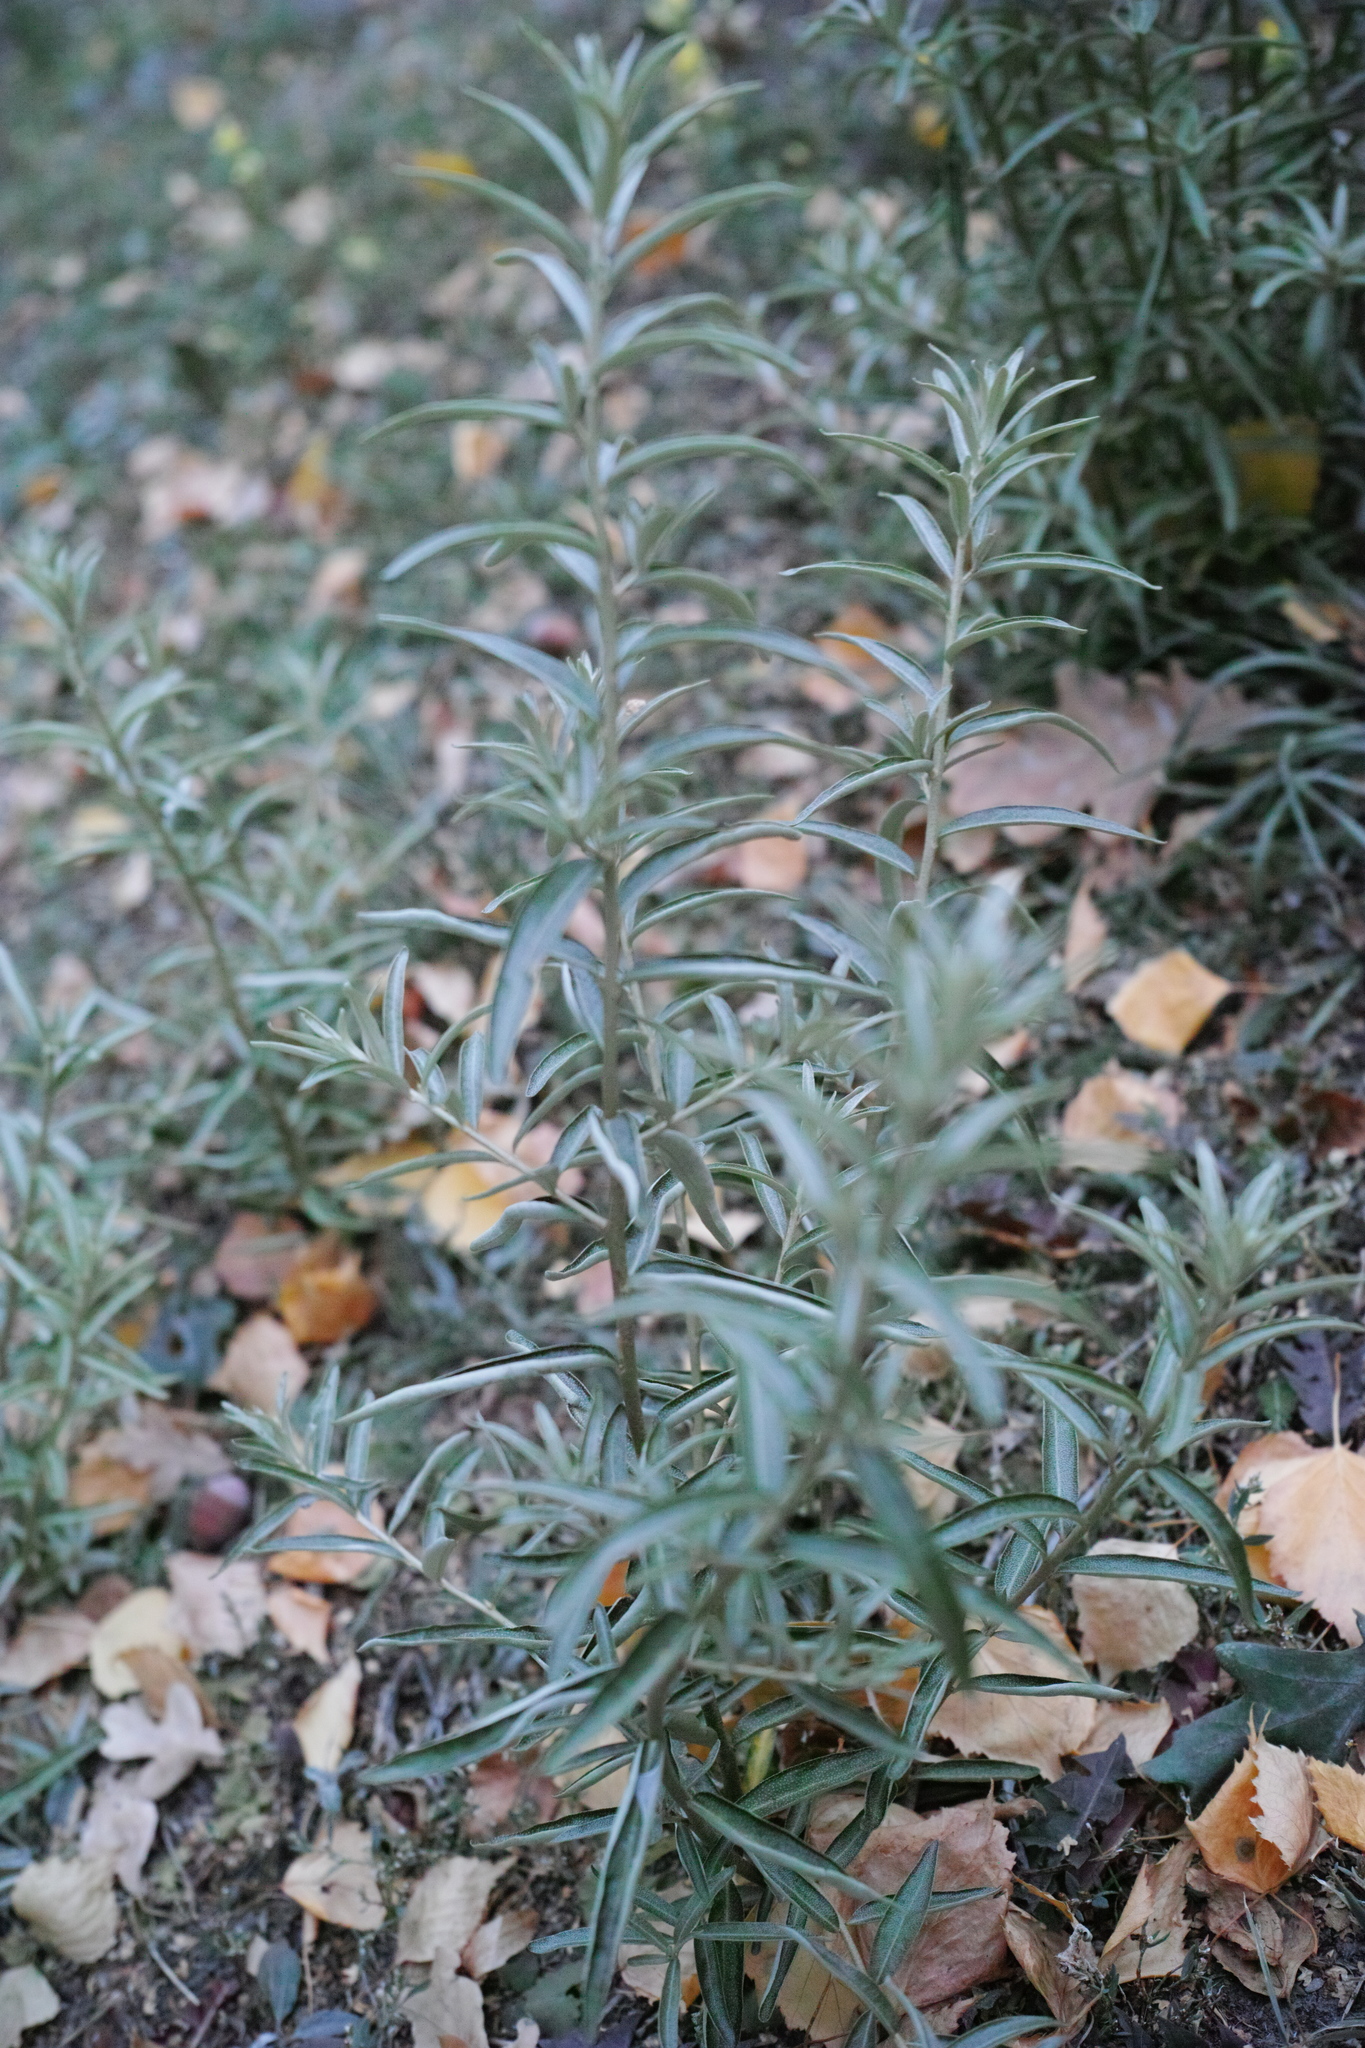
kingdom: Plantae
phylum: Tracheophyta
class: Magnoliopsida
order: Rosales
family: Elaeagnaceae
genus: Hippophae
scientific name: Hippophae rhamnoides
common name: Sea-buckthorn
